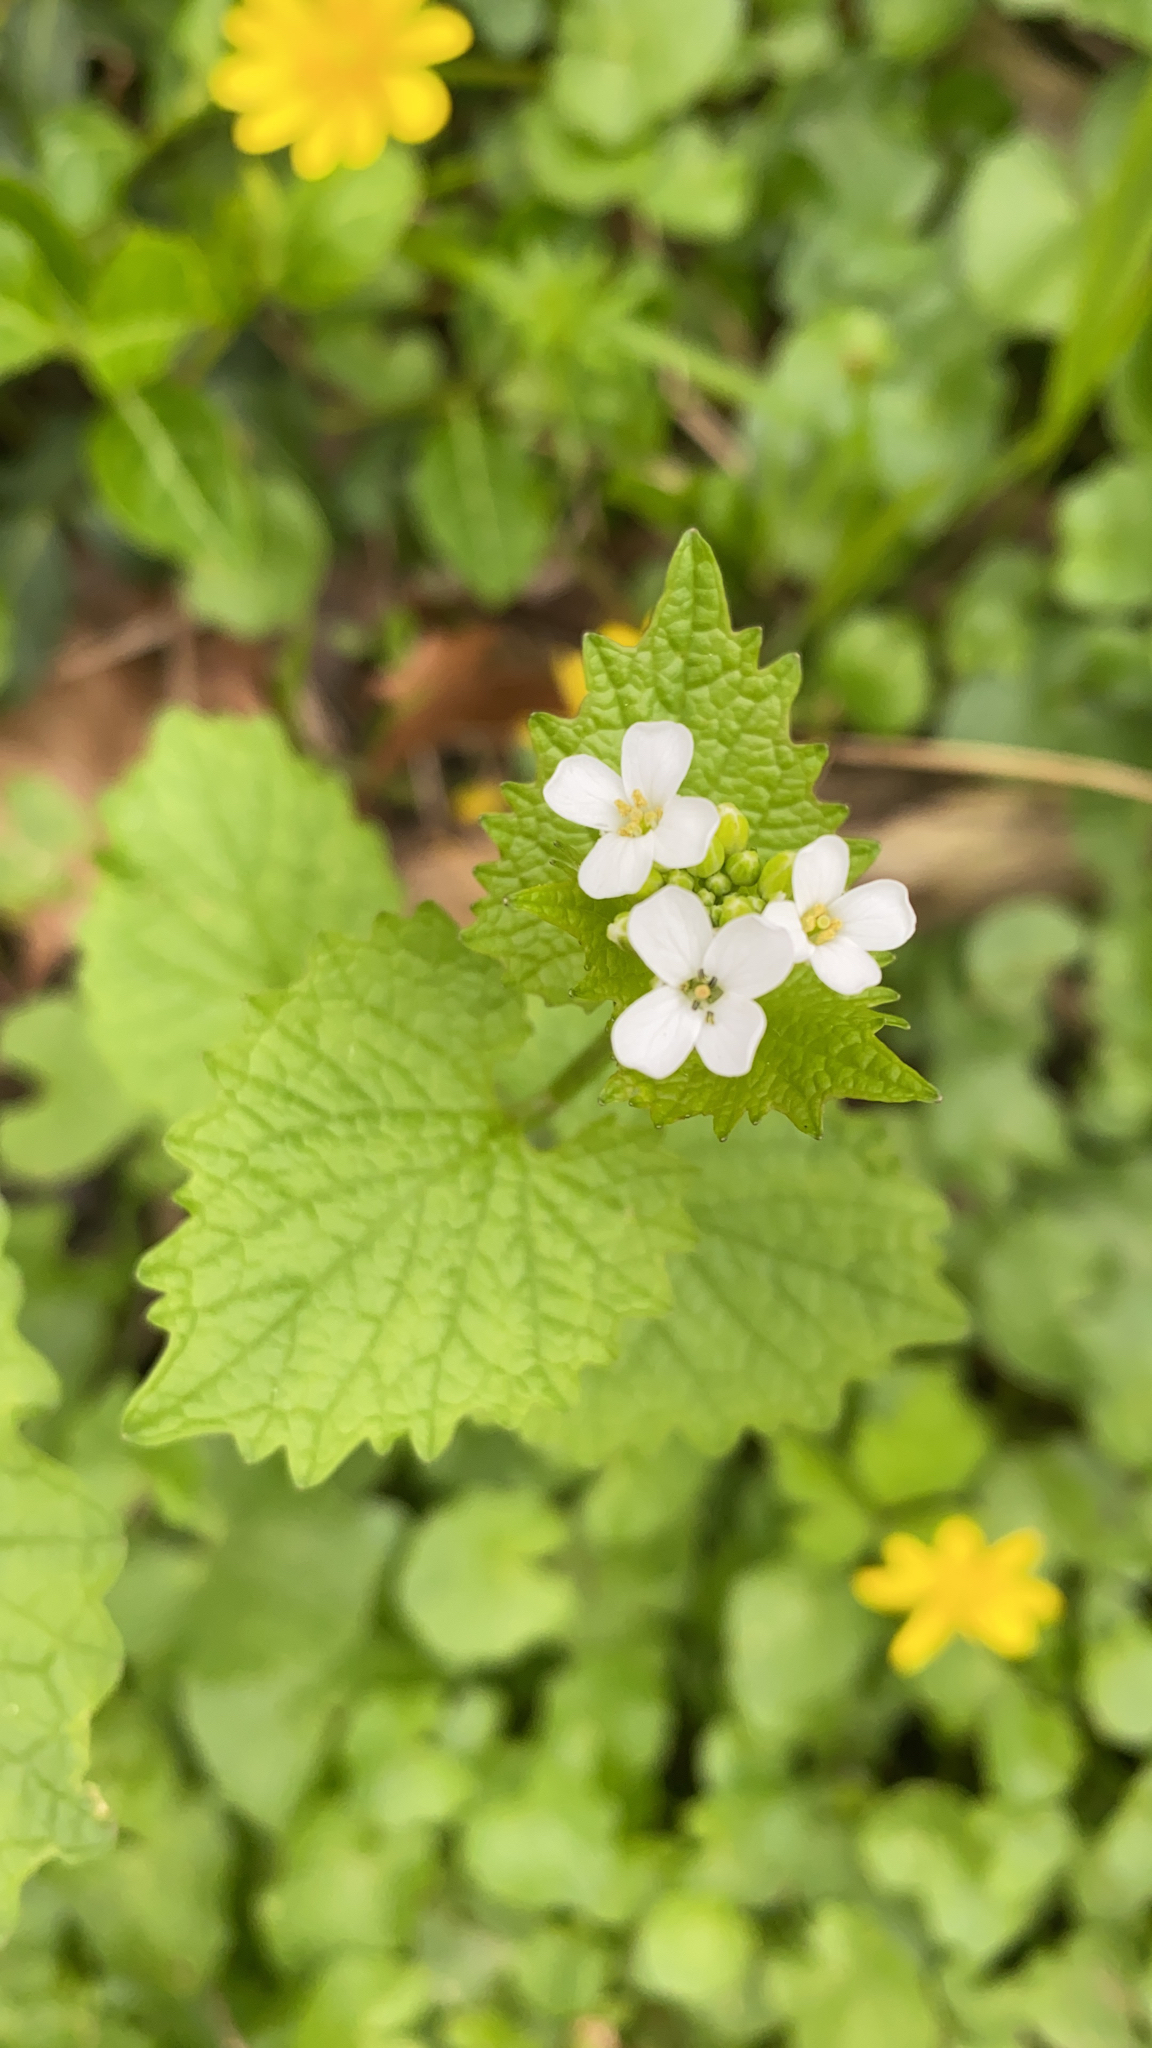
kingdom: Plantae
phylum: Tracheophyta
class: Magnoliopsida
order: Brassicales
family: Brassicaceae
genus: Alliaria
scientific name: Alliaria petiolata
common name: Garlic mustard
